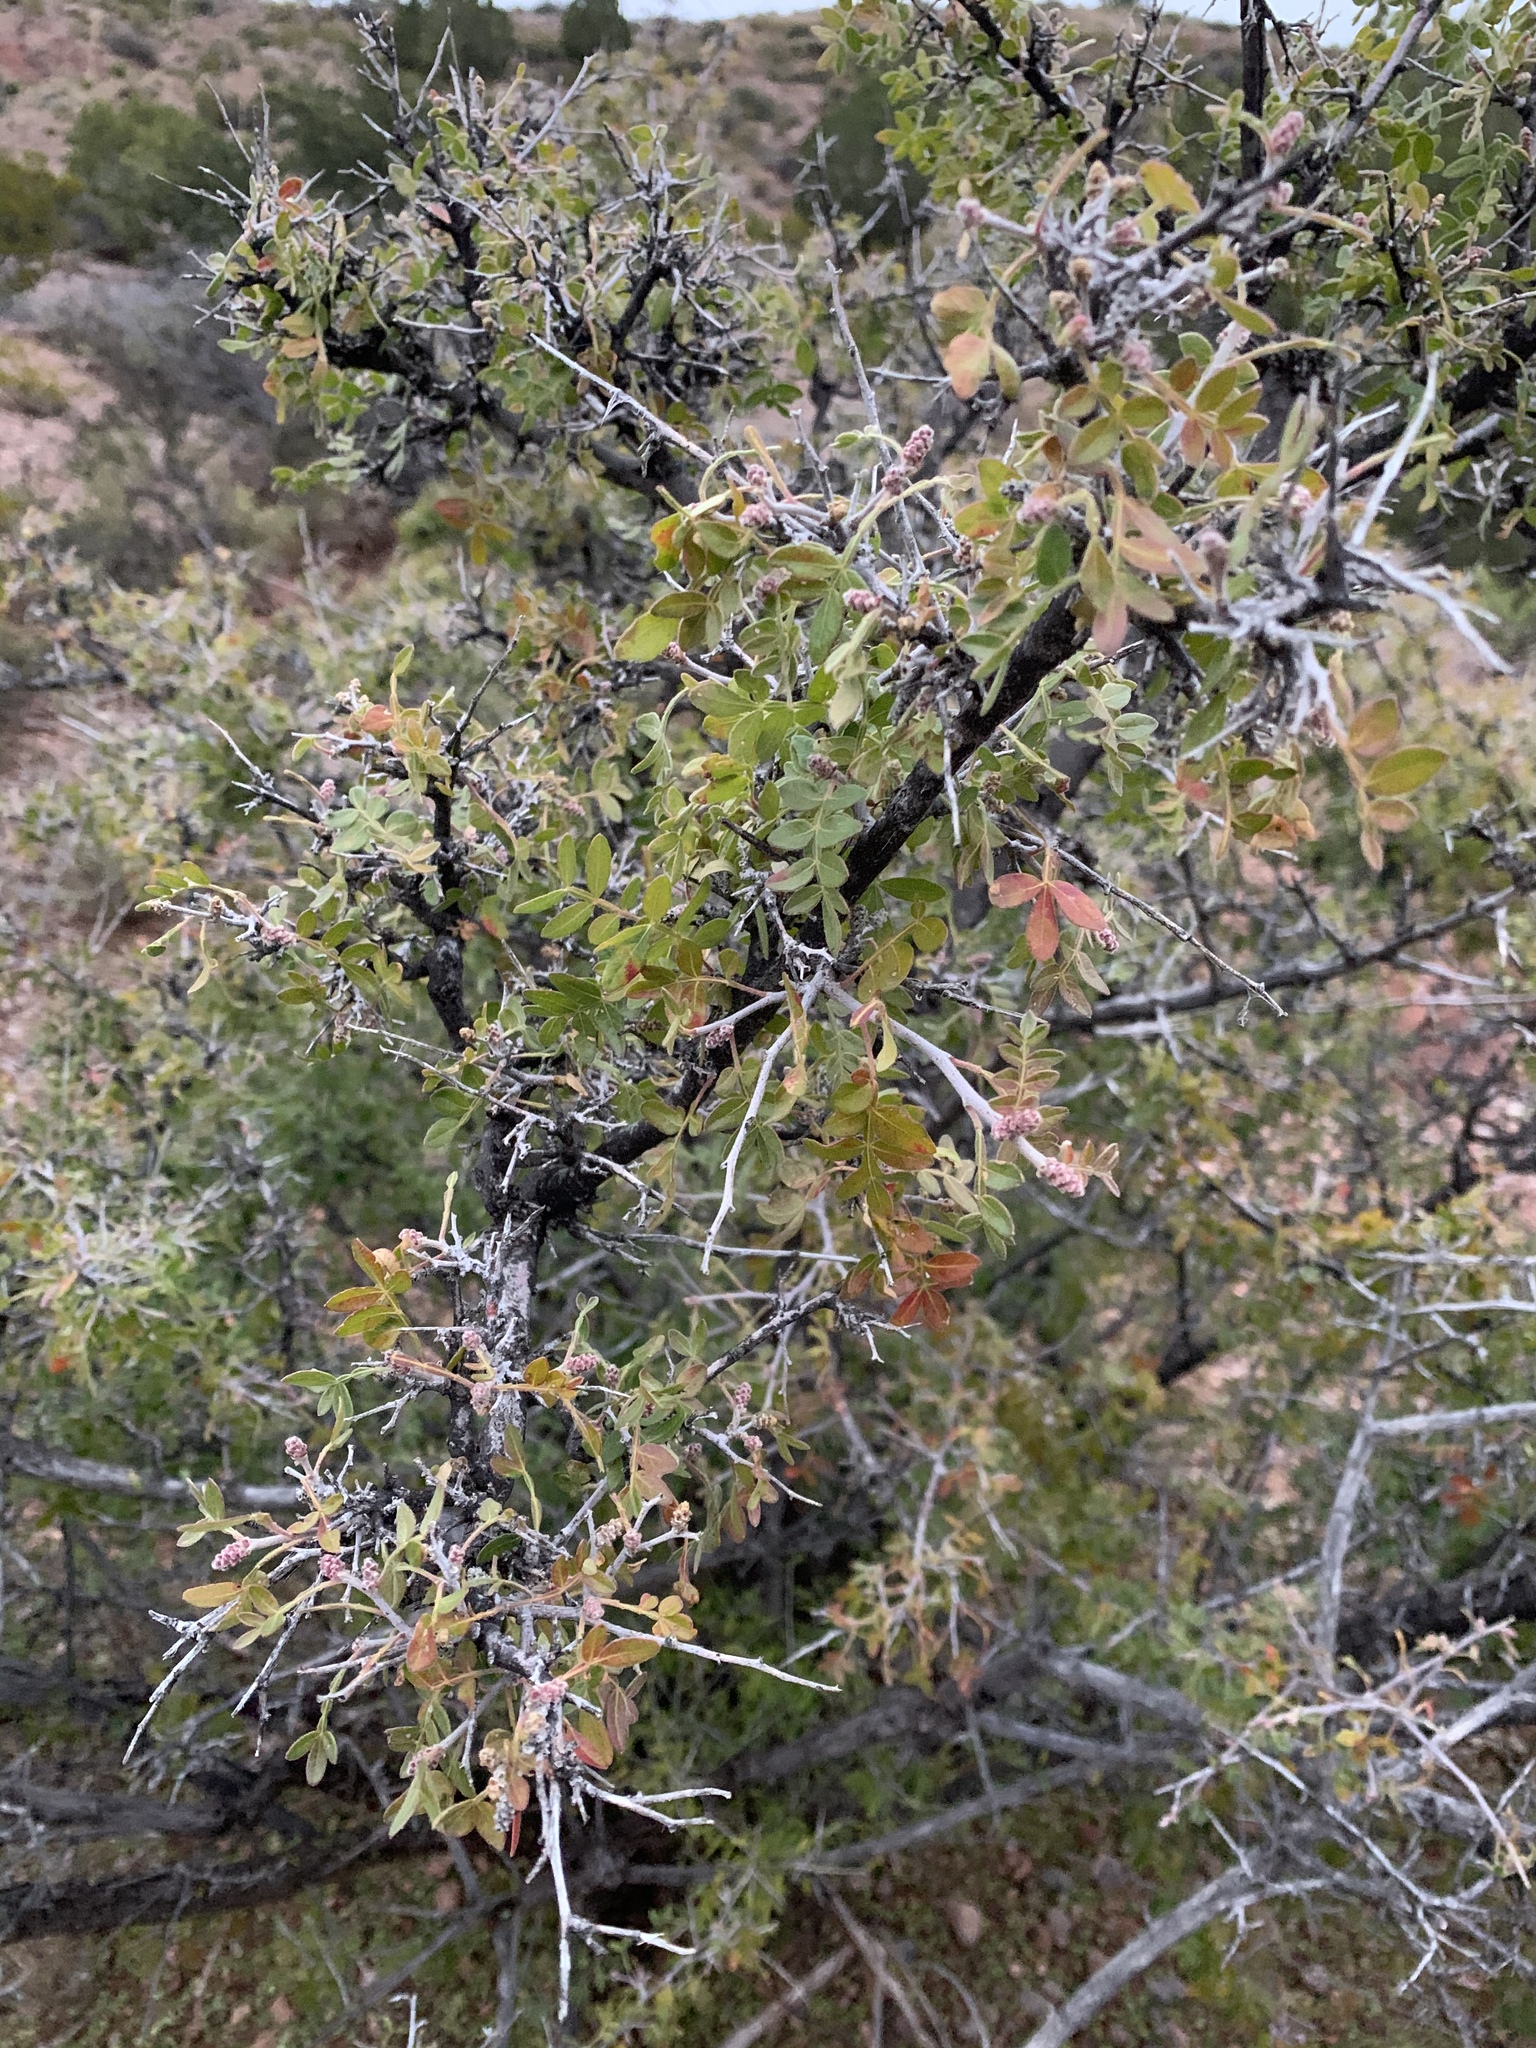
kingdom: Plantae
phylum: Tracheophyta
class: Magnoliopsida
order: Sapindales
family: Anacardiaceae
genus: Rhus
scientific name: Rhus microphylla
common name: Desert sumac
